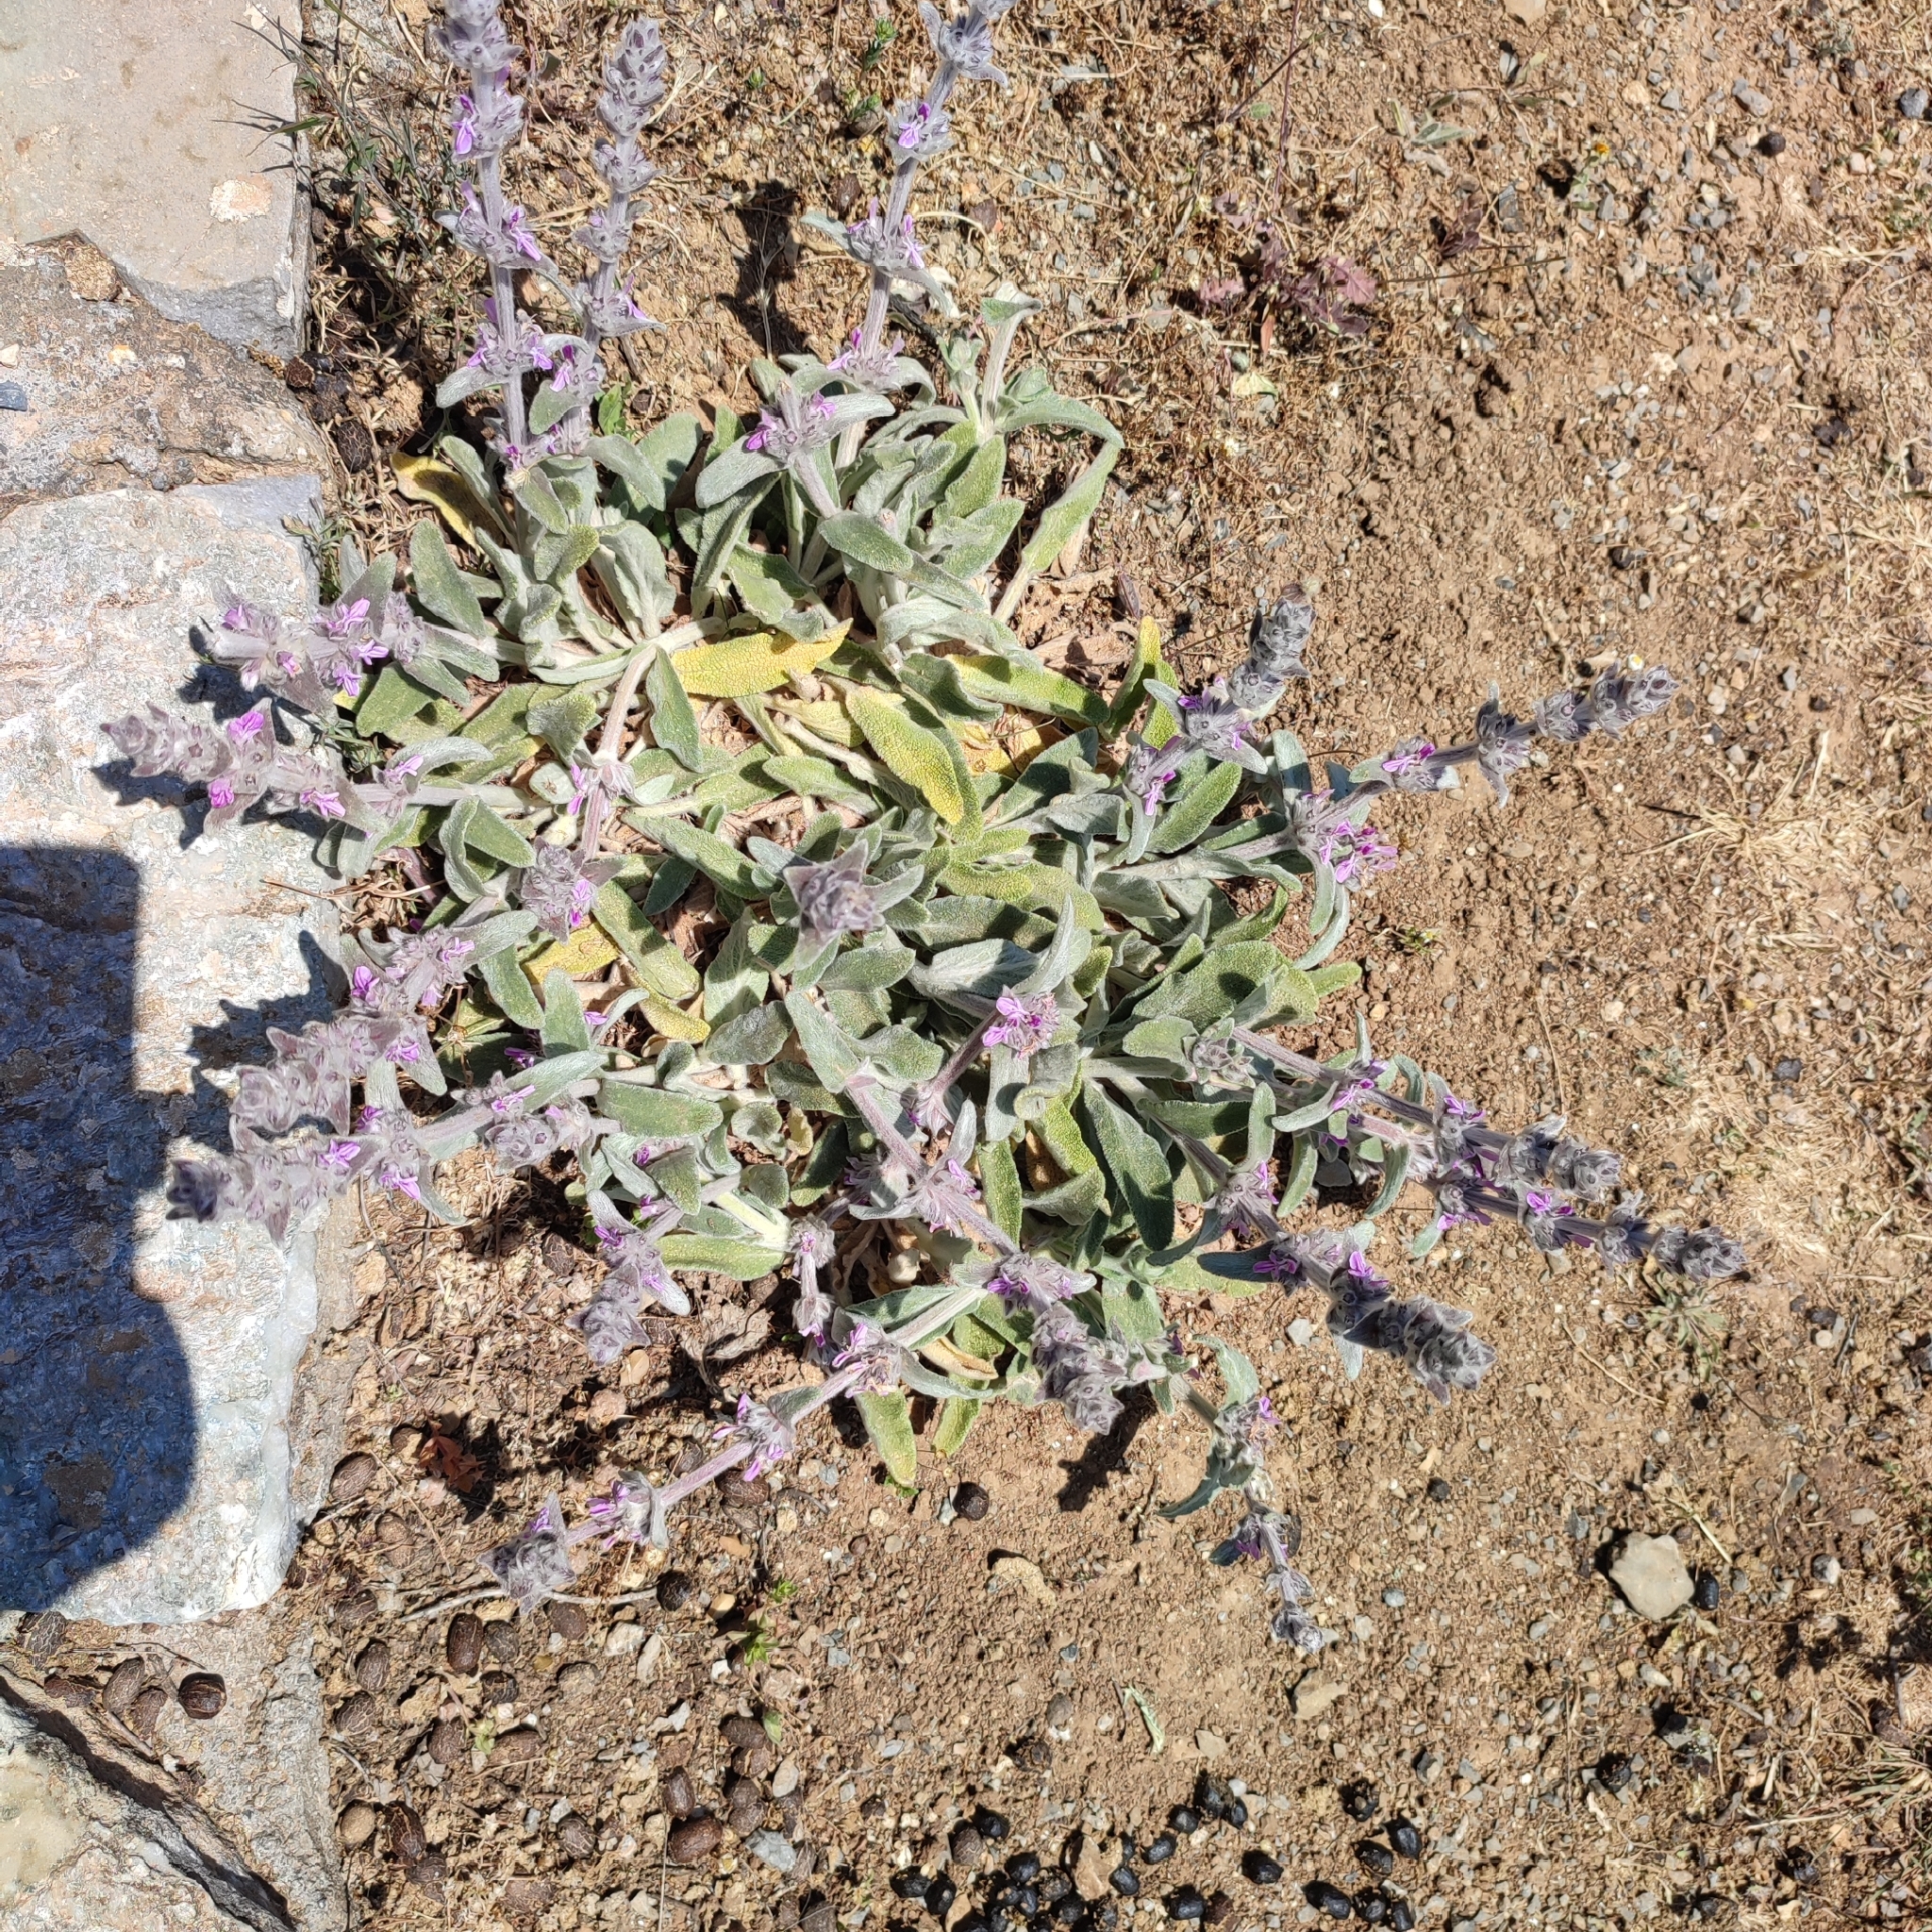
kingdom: Plantae
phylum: Tracheophyta
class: Magnoliopsida
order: Lamiales
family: Lamiaceae
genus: Stachys
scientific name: Stachys cretica
